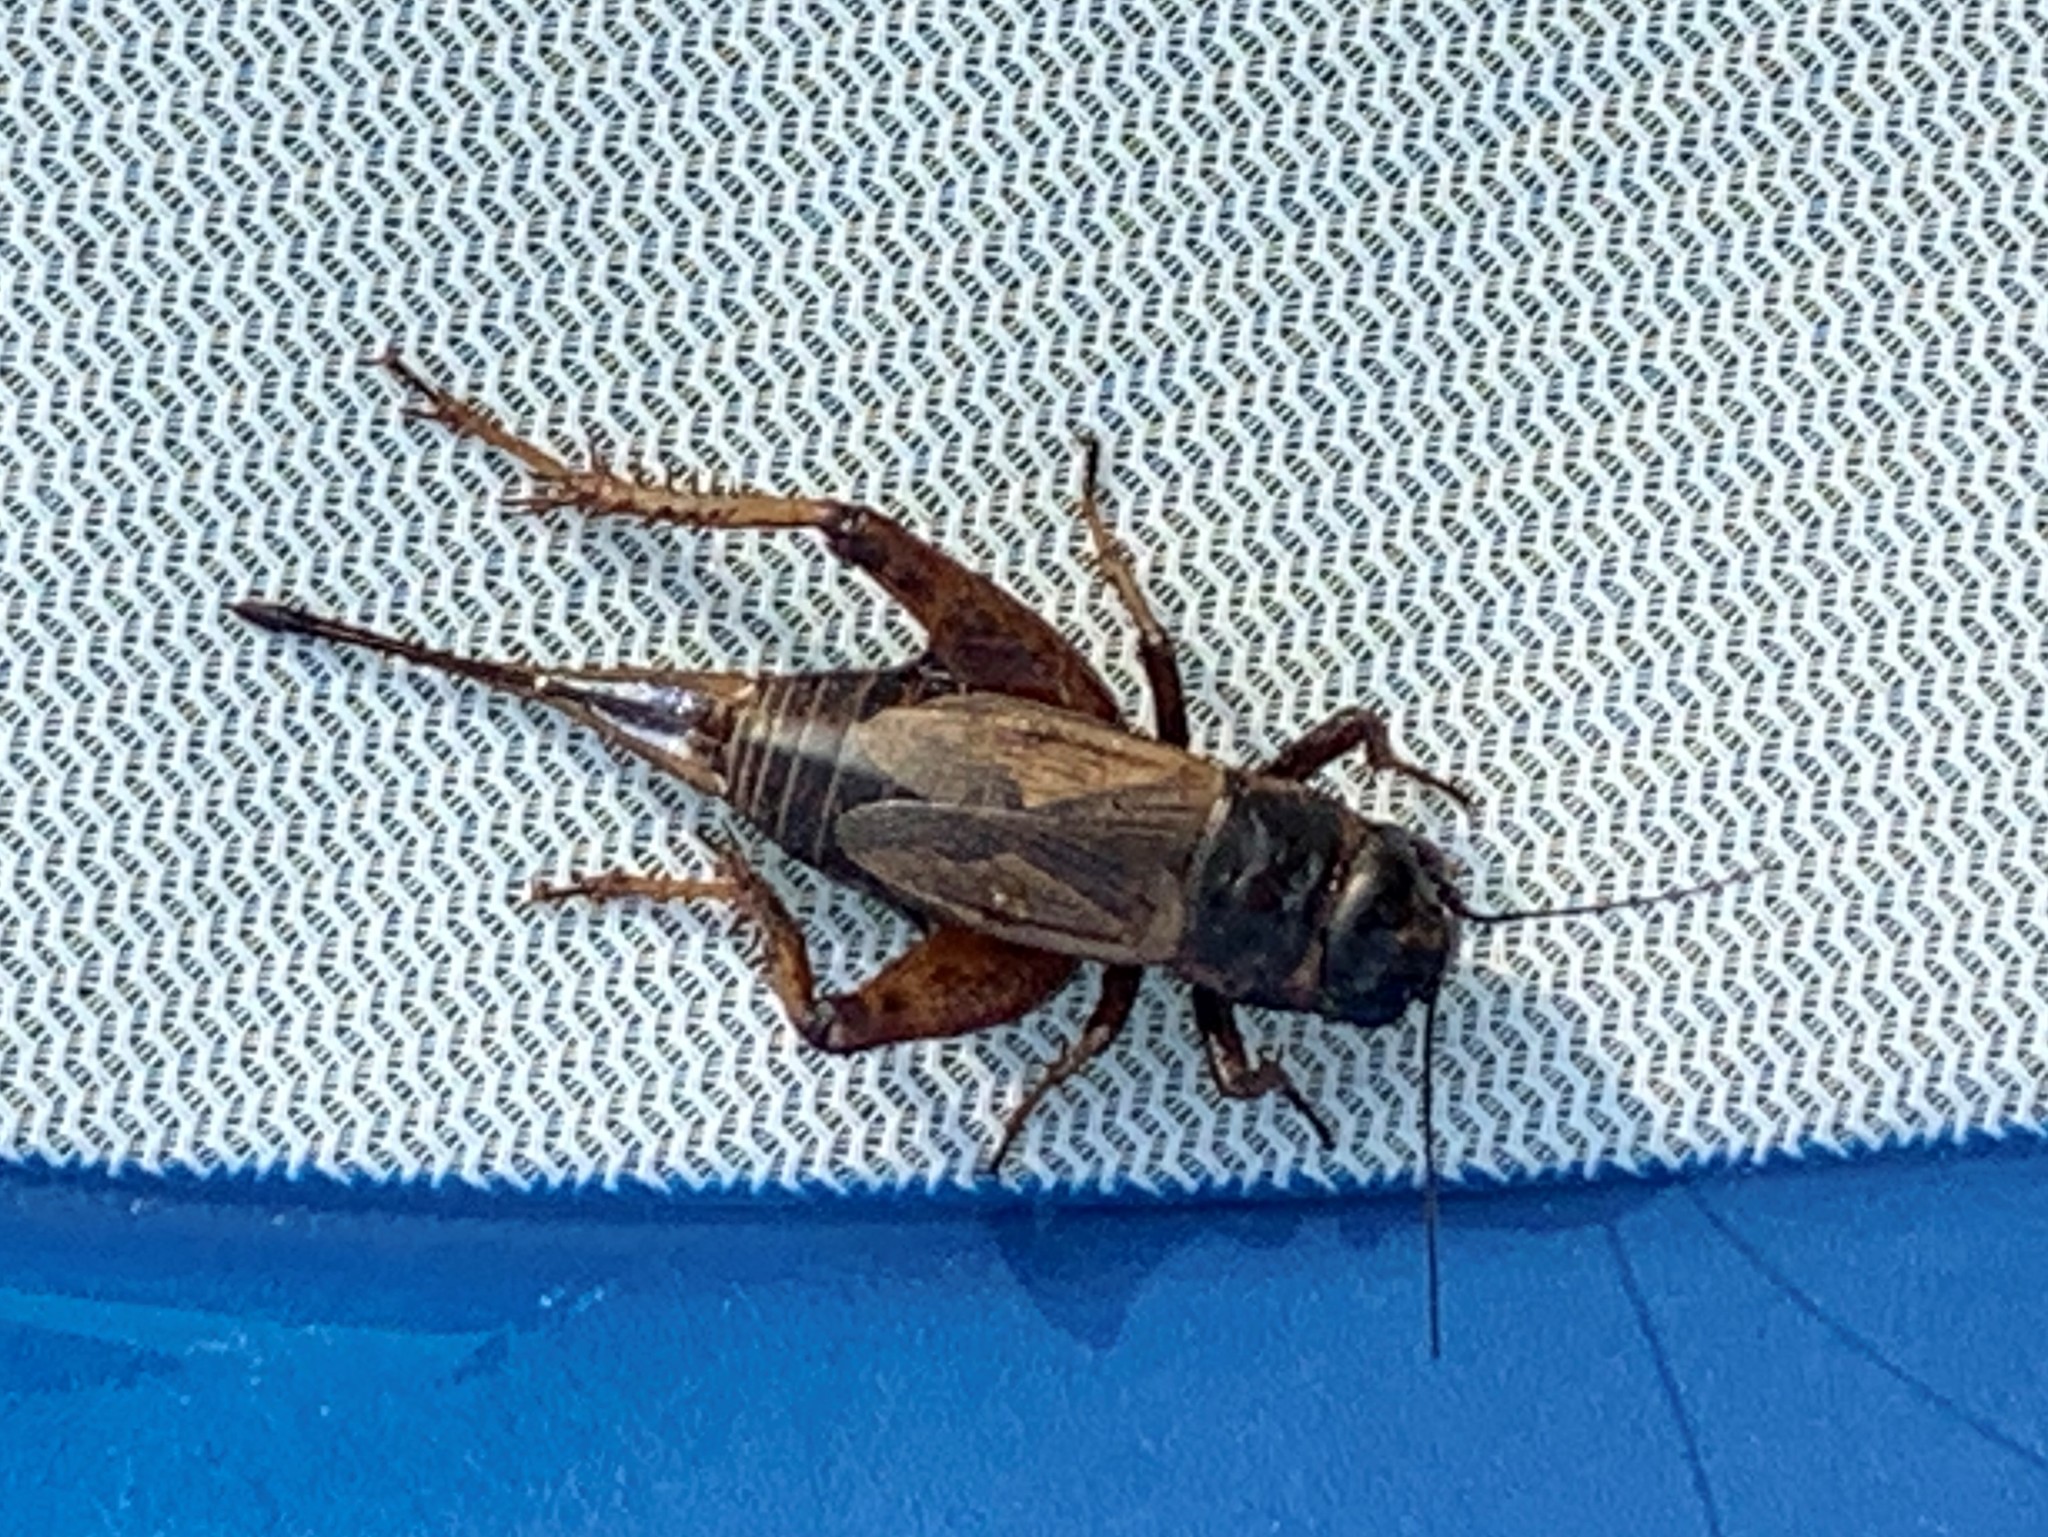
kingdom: Animalia
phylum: Arthropoda
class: Insecta
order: Orthoptera
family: Gryllidae
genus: Gryllus
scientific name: Gryllus pennsylvanicus
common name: Fall field cricket
